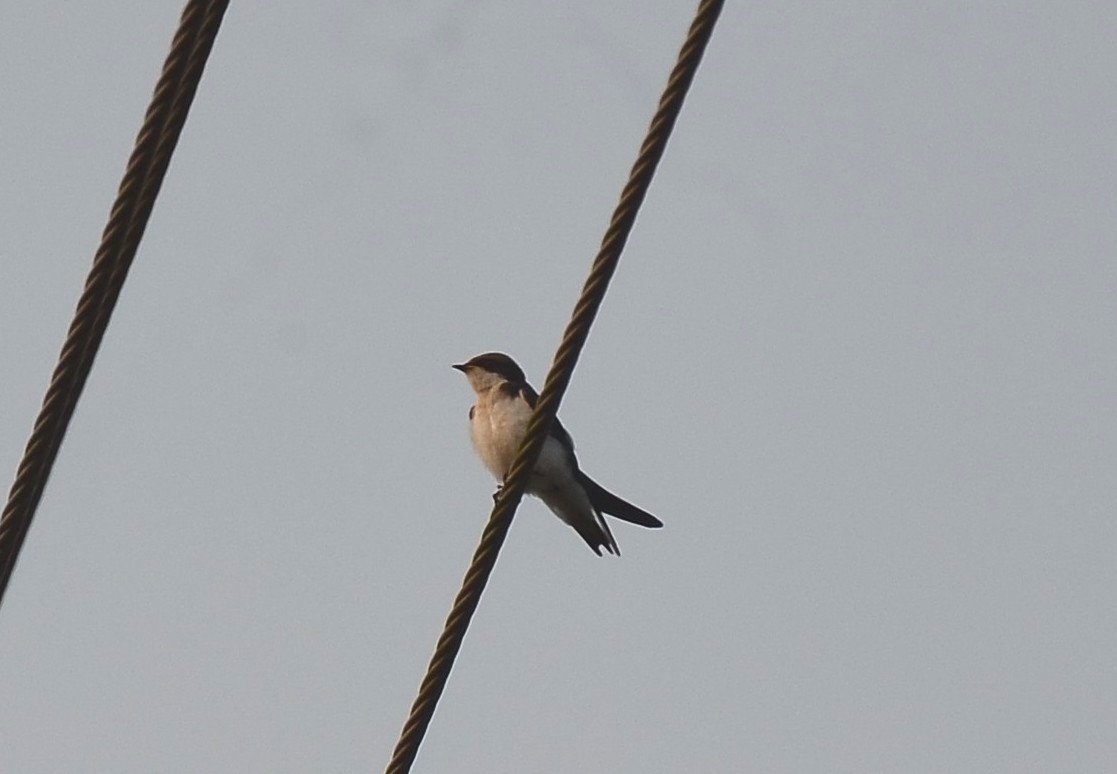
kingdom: Animalia
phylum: Chordata
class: Aves
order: Passeriformes
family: Hirundinidae
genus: Hirundo
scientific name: Hirundo smithii
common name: Wire-tailed swallow
